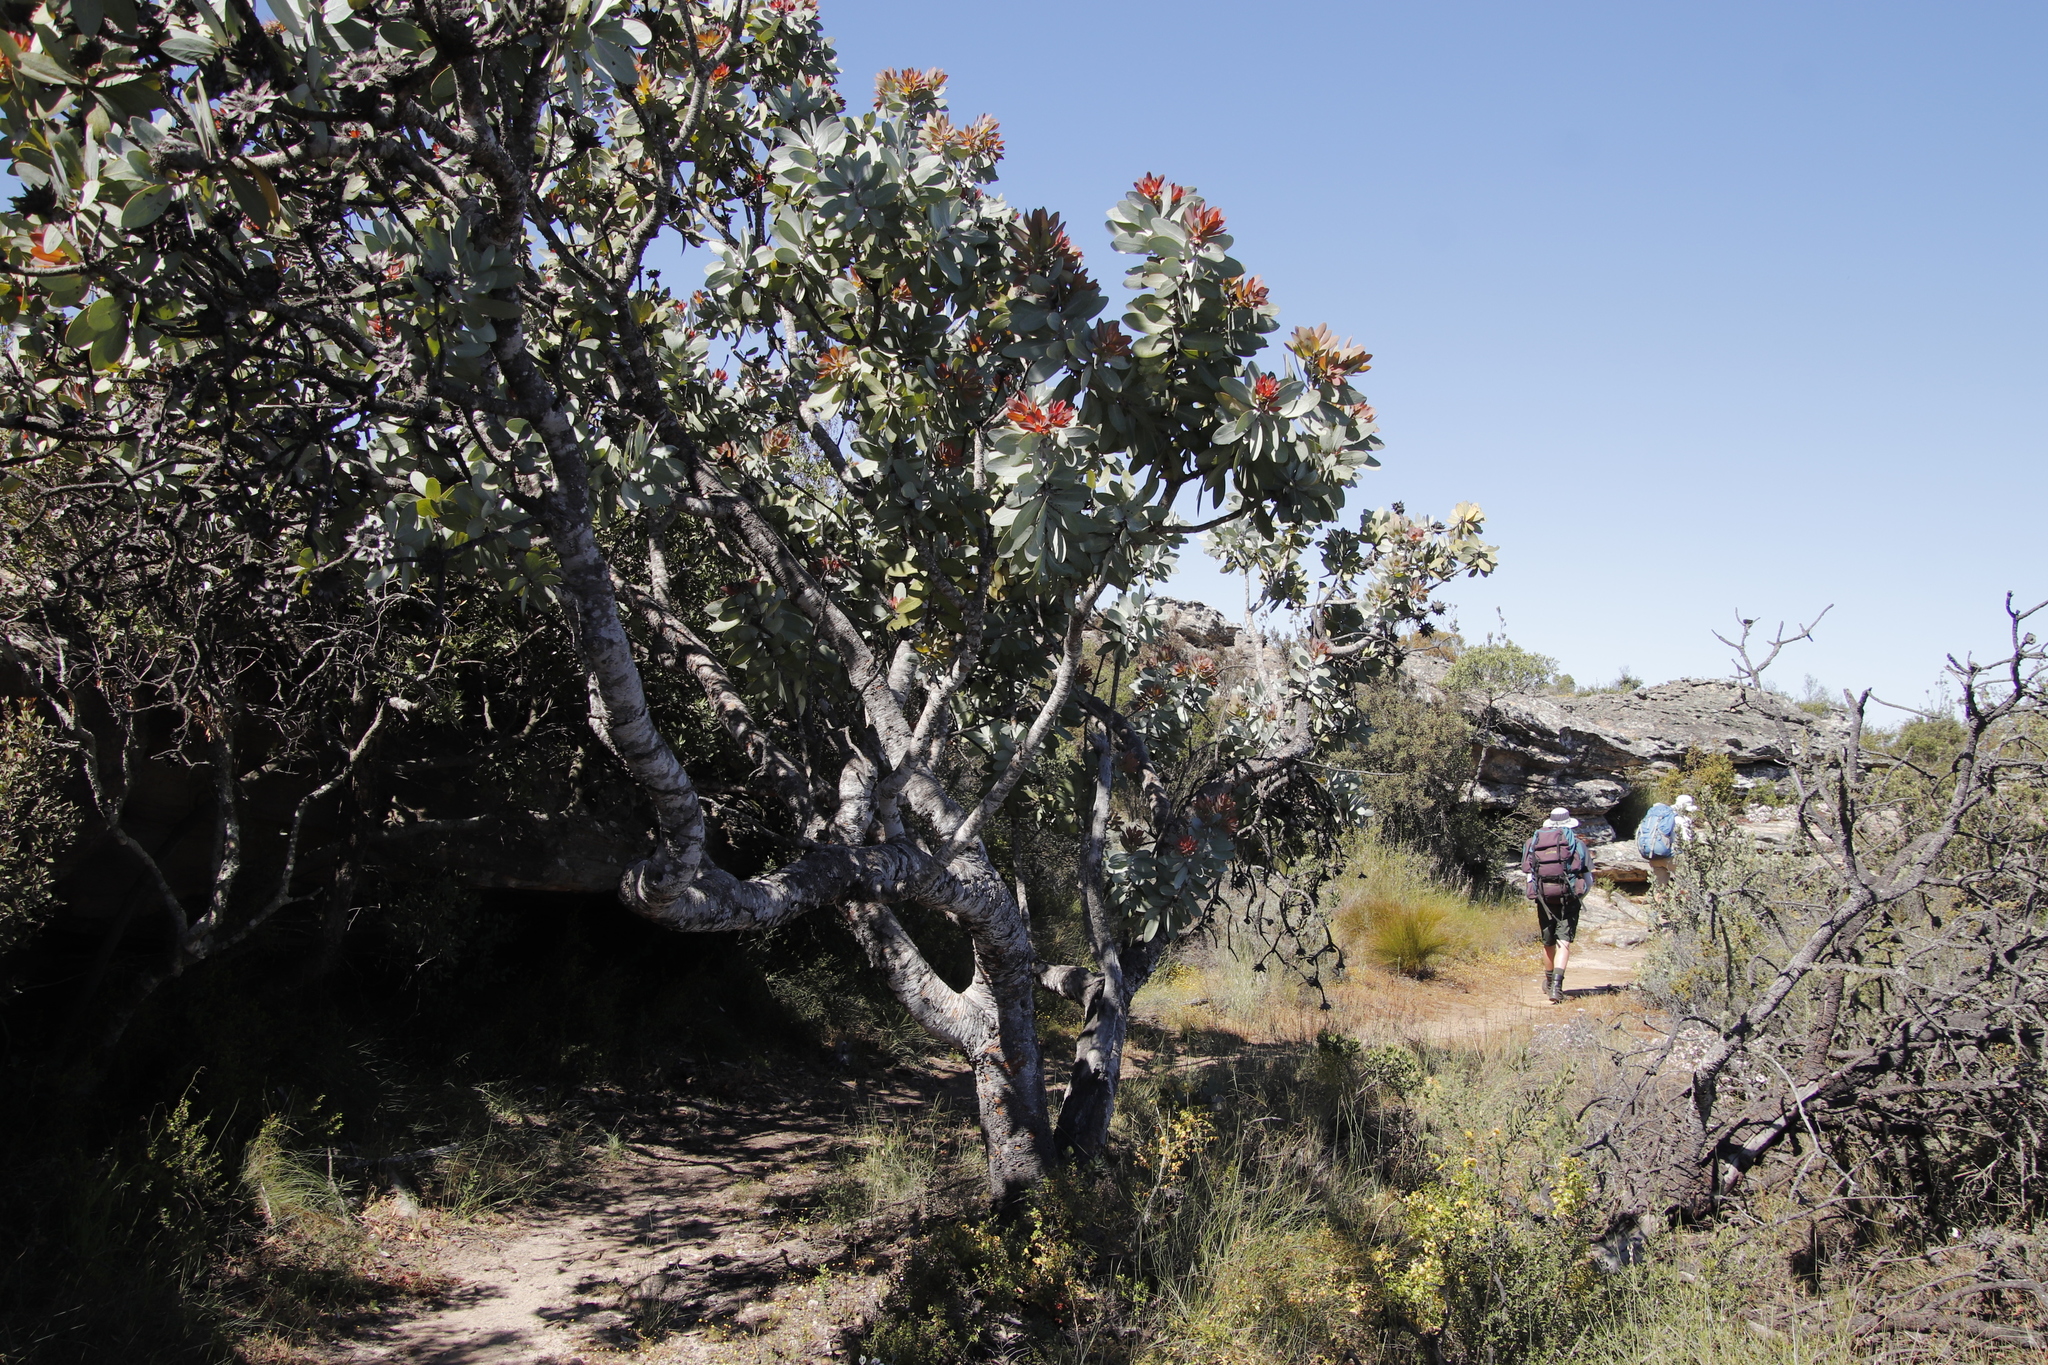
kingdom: Plantae
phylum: Tracheophyta
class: Magnoliopsida
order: Proteales
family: Proteaceae
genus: Protea
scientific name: Protea nitida
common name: Tree protea
